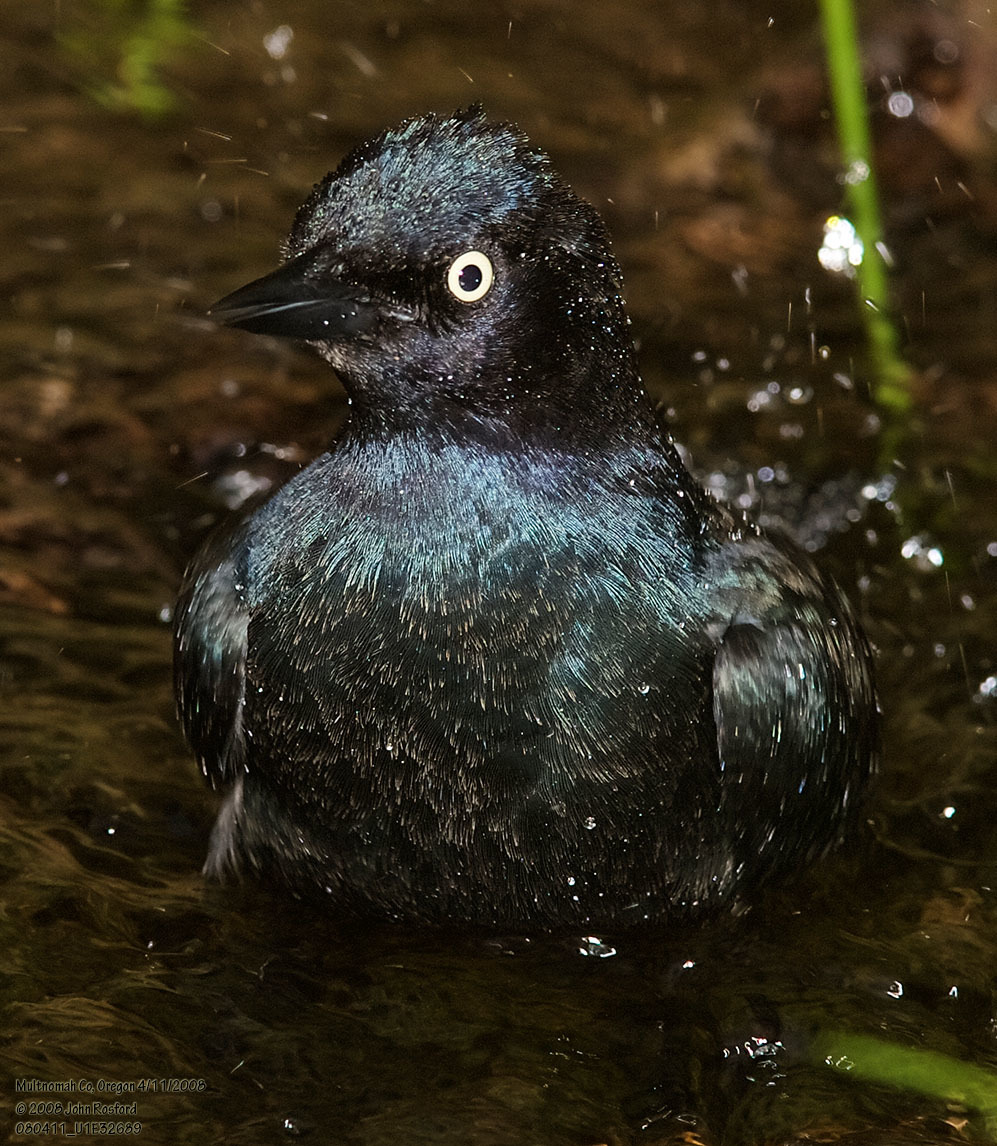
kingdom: Animalia
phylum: Chordata
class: Aves
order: Passeriformes
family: Icteridae
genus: Euphagus
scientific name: Euphagus cyanocephalus
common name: Brewer's blackbird
